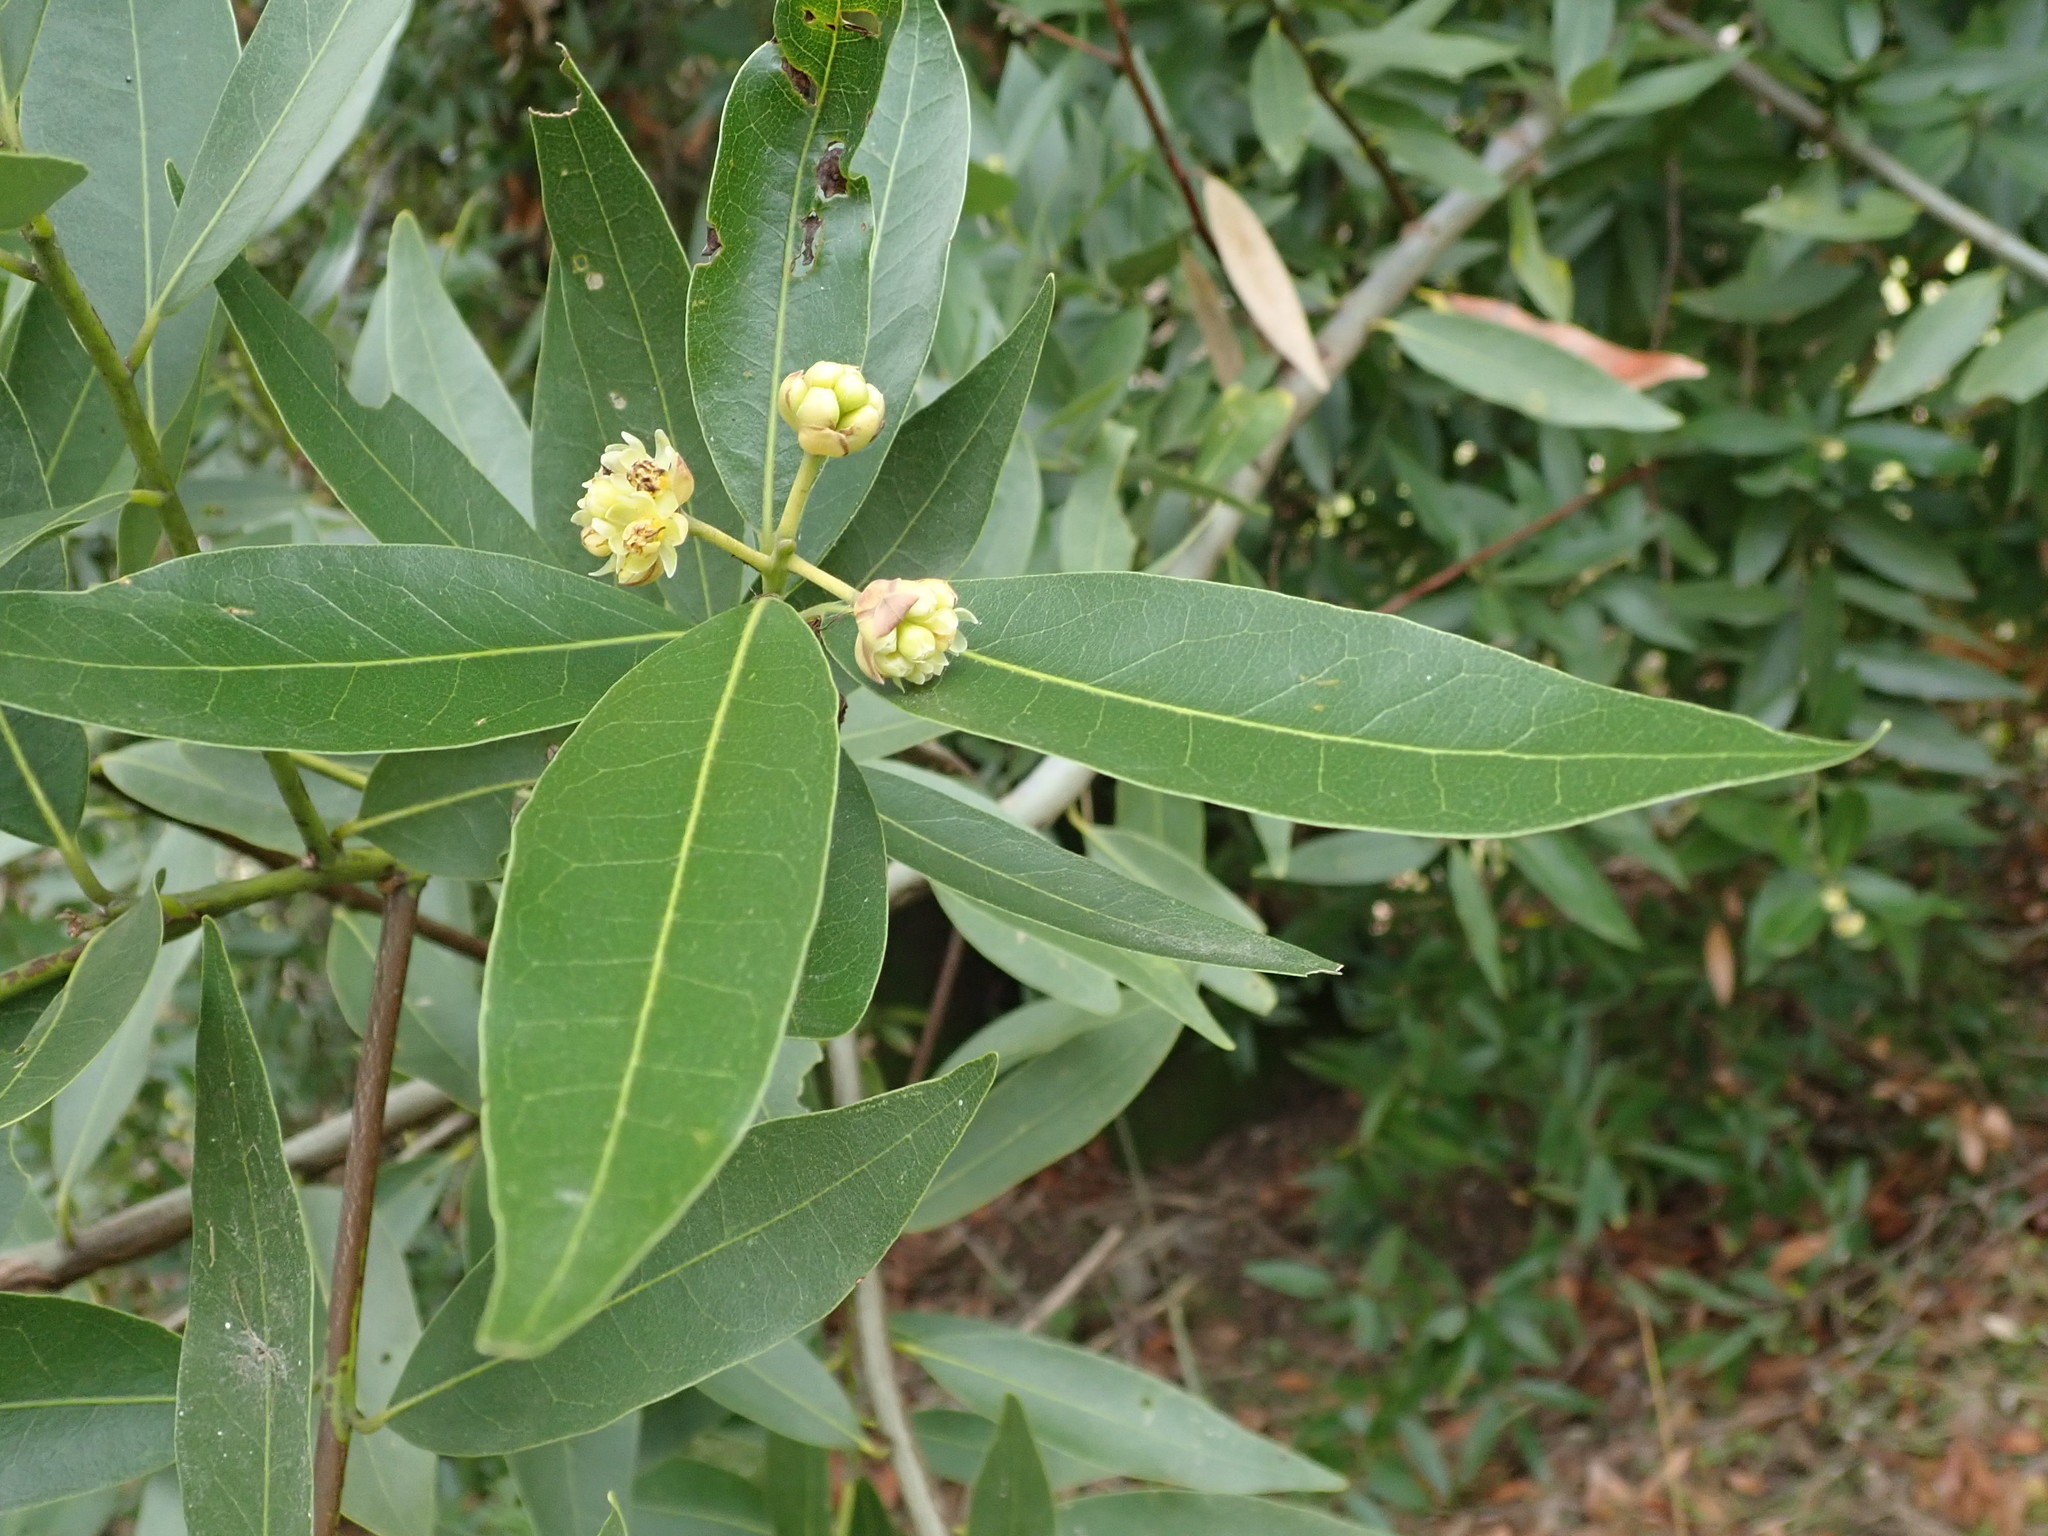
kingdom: Plantae
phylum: Tracheophyta
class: Magnoliopsida
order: Laurales
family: Lauraceae
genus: Umbellularia
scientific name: Umbellularia californica
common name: California bay
